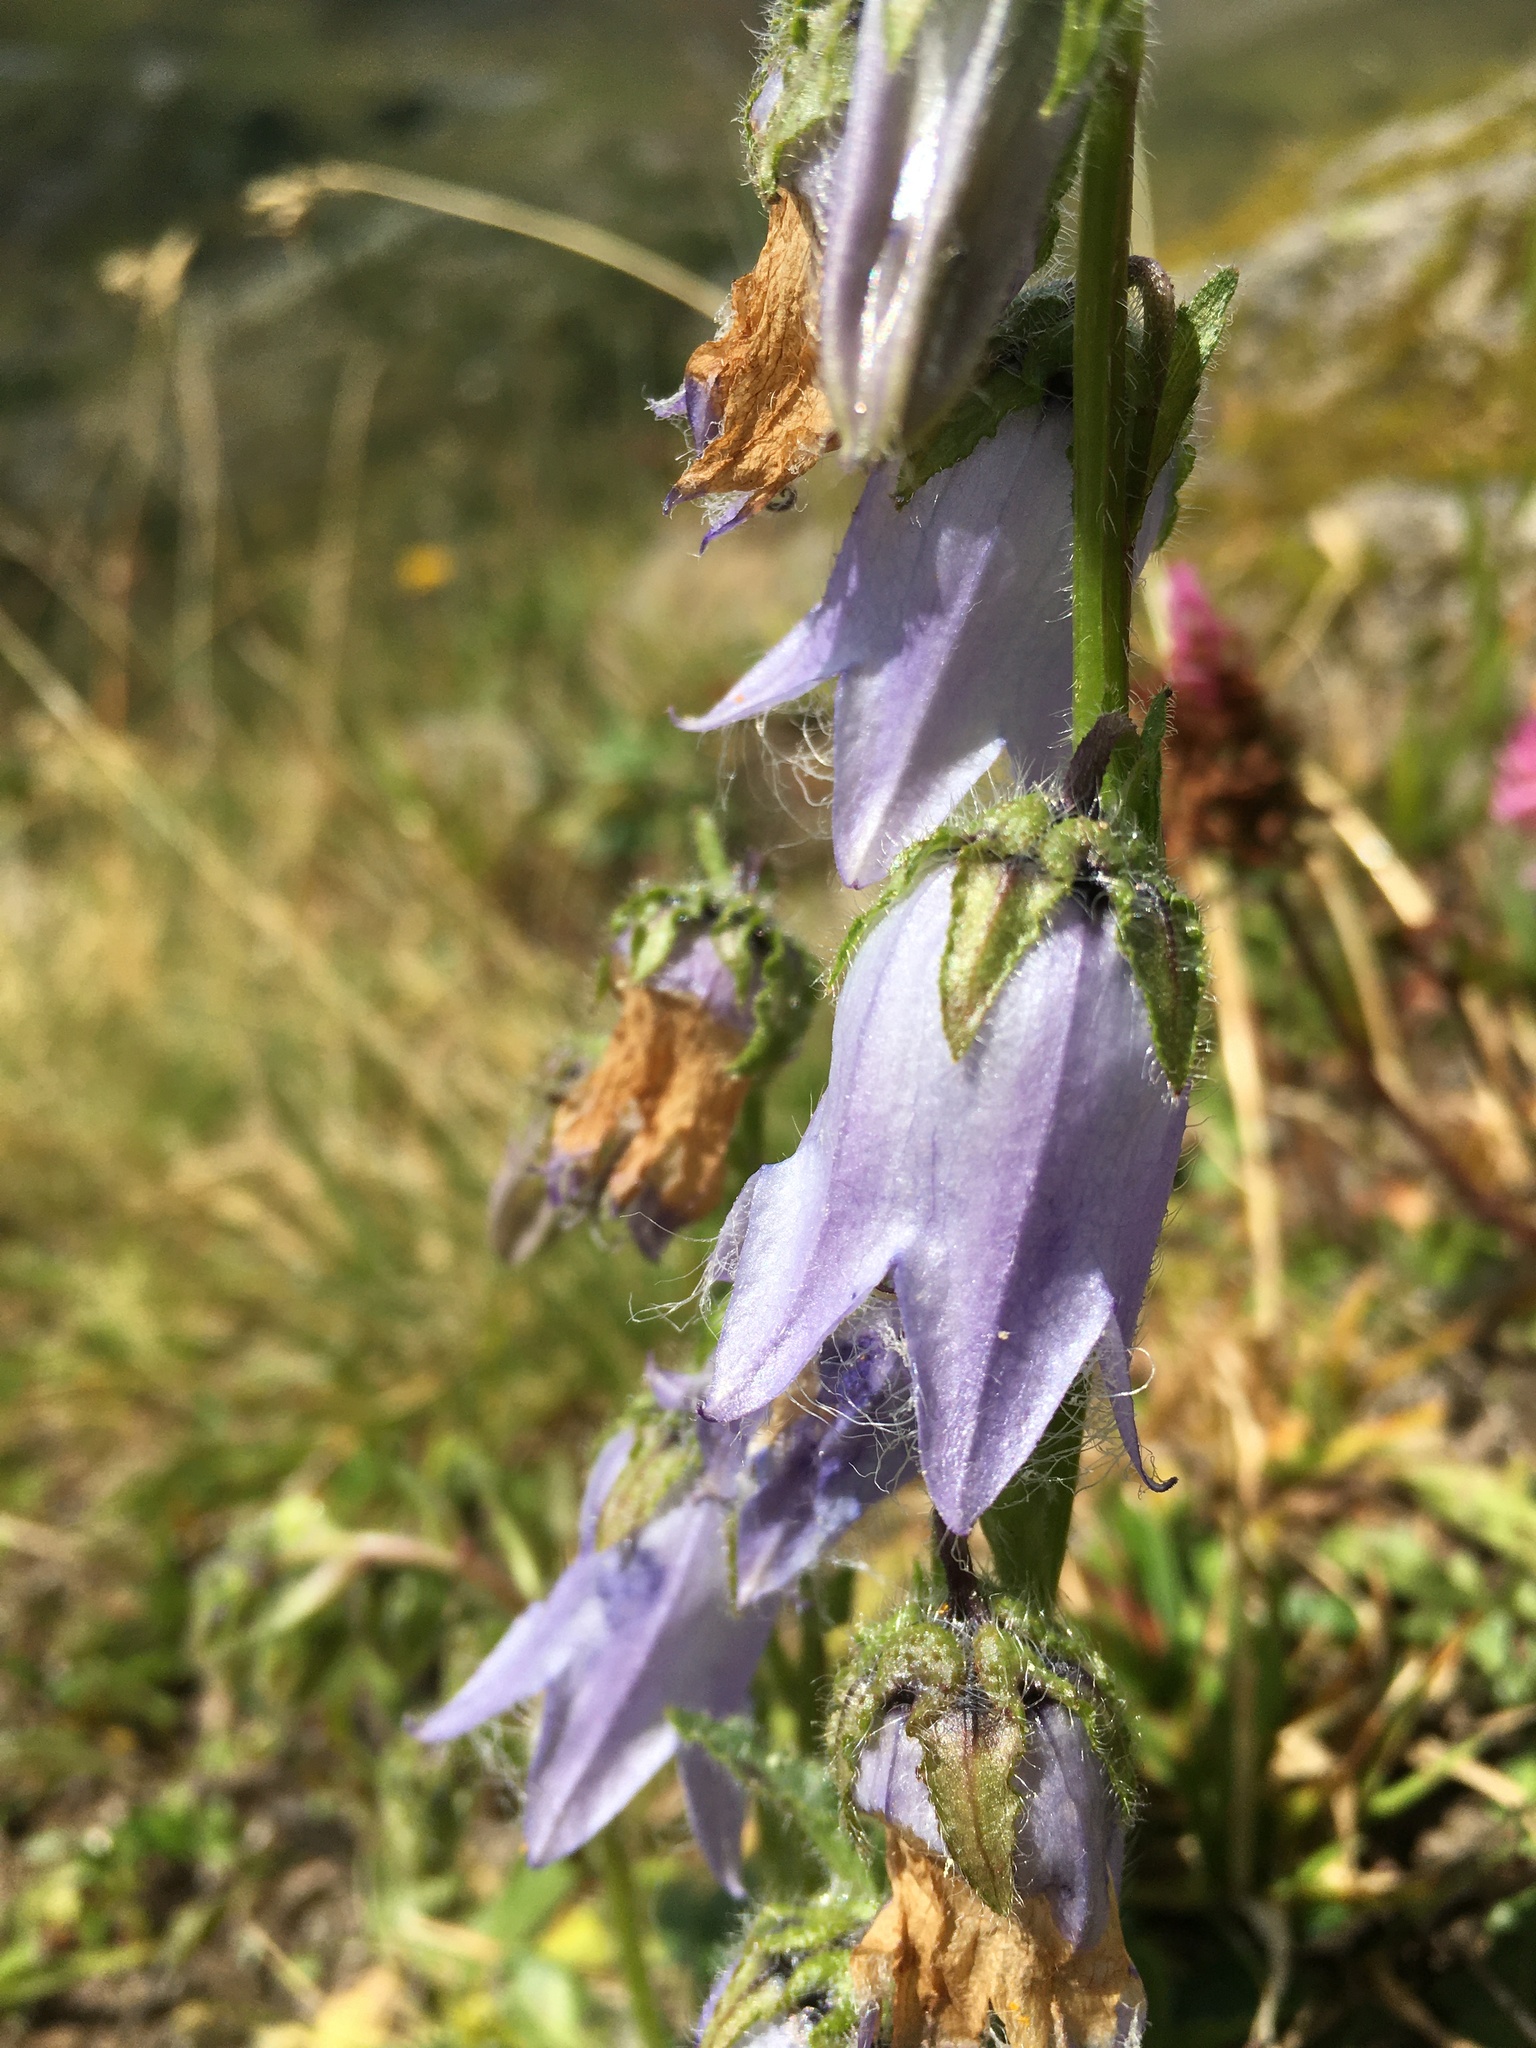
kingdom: Plantae
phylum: Tracheophyta
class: Magnoliopsida
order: Asterales
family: Campanulaceae
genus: Campanula
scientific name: Campanula barbata
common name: Bearded bellflower
